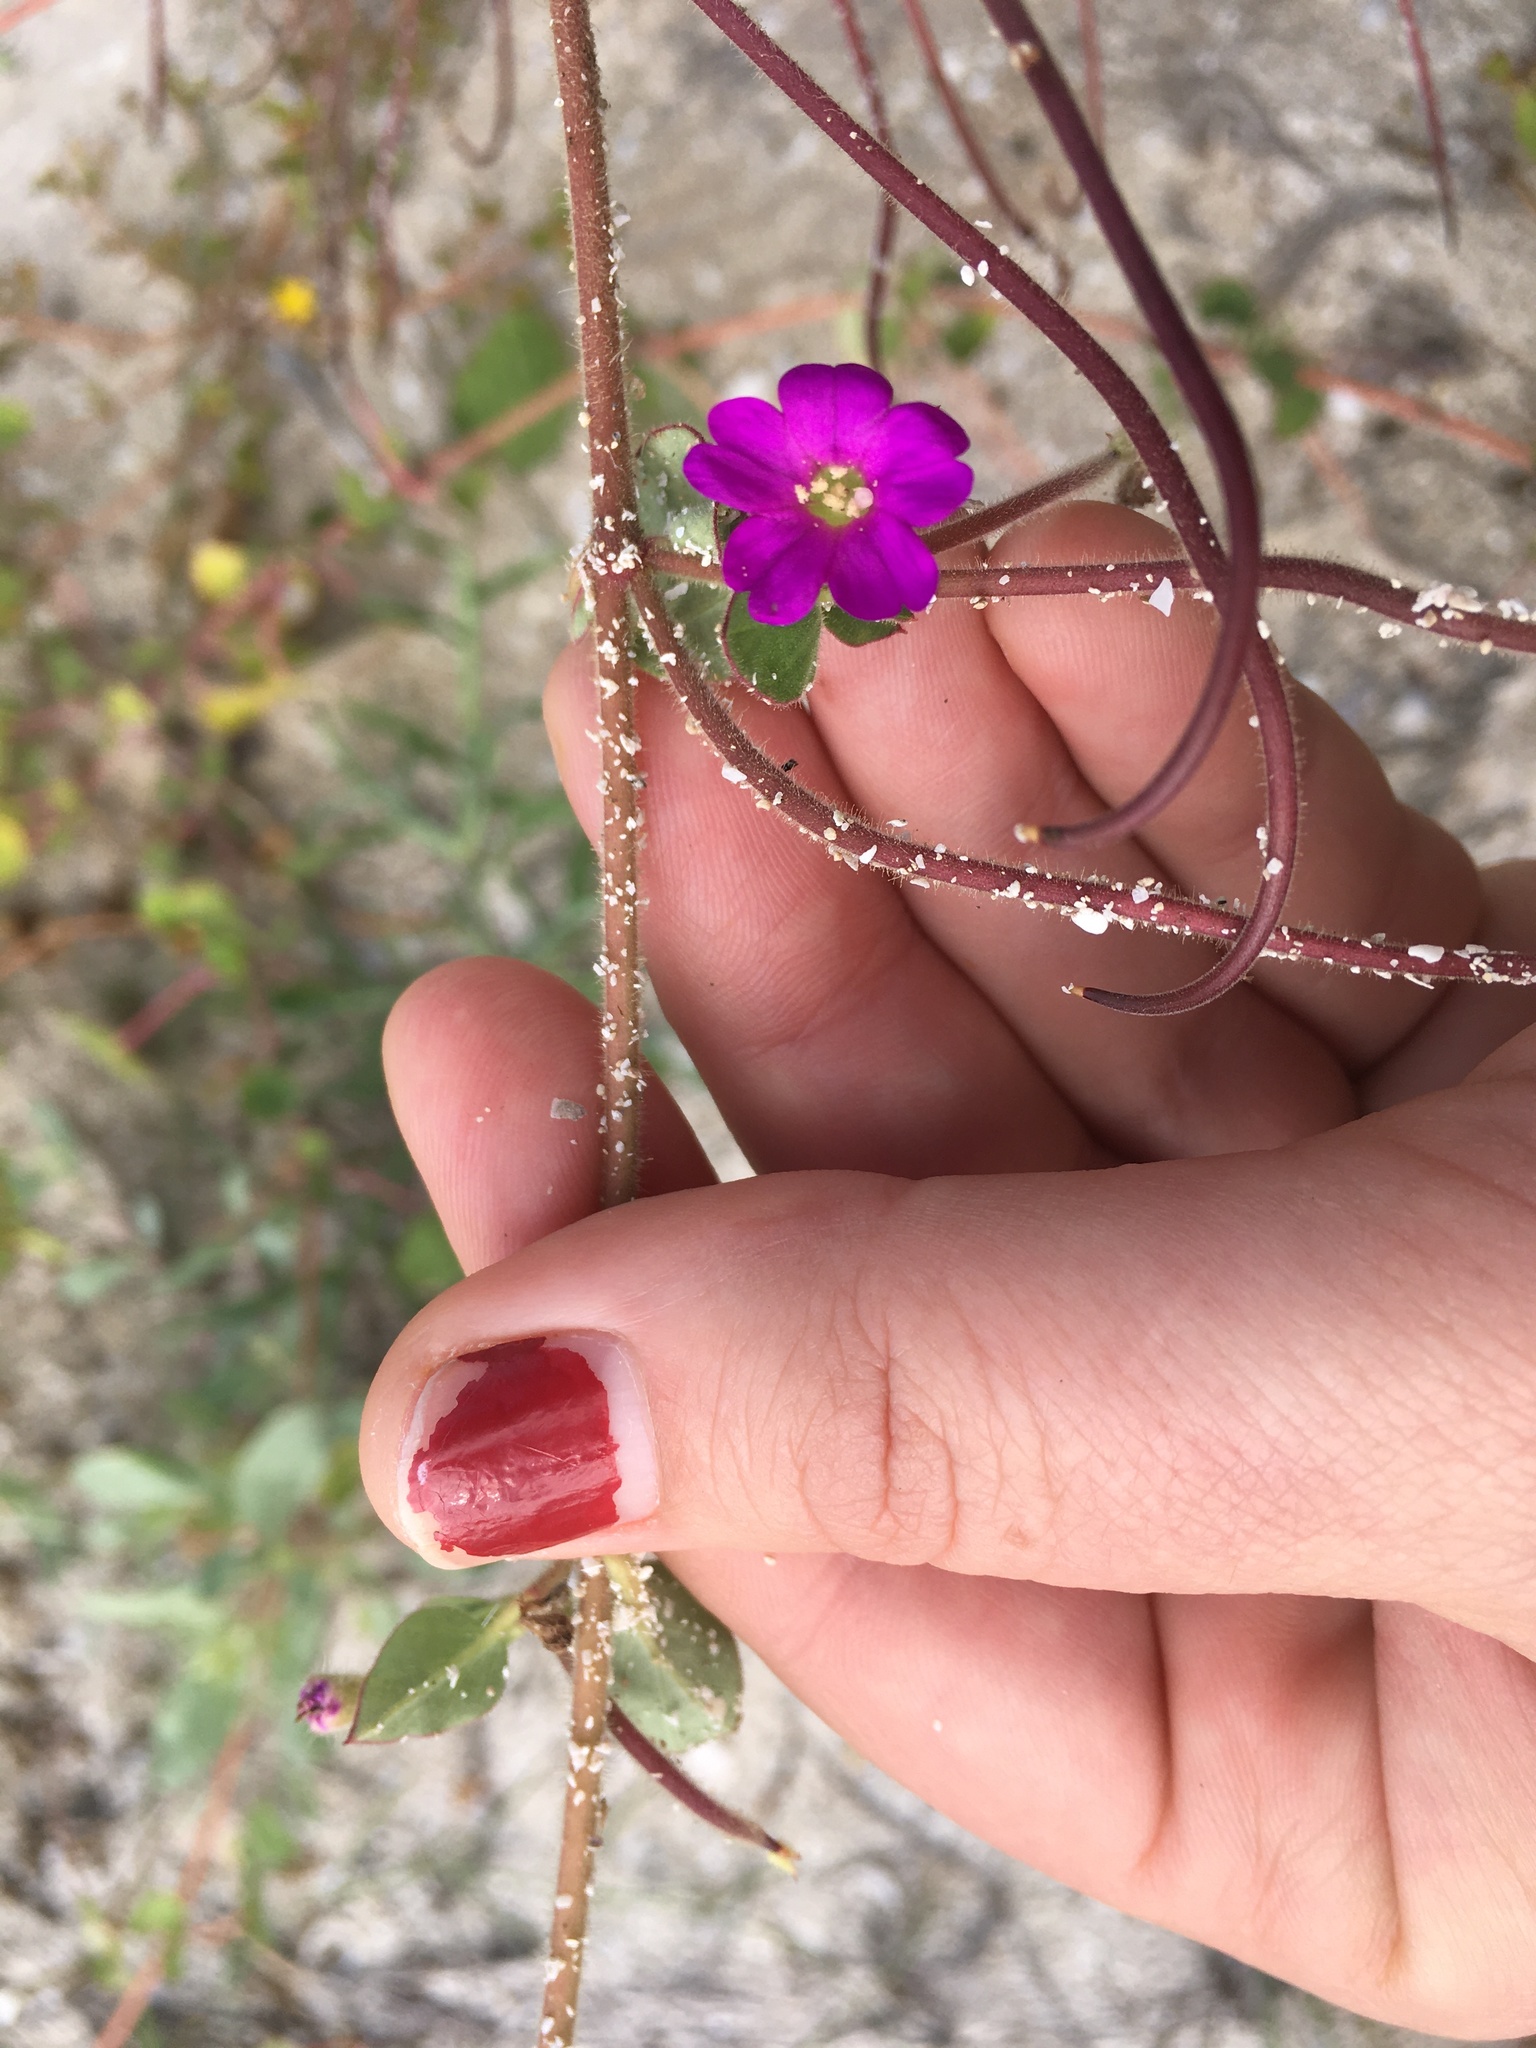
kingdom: Plantae
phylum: Tracheophyta
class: Magnoliopsida
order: Caryophyllales
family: Nyctaginaceae
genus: Okenia
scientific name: Okenia hypogaea
